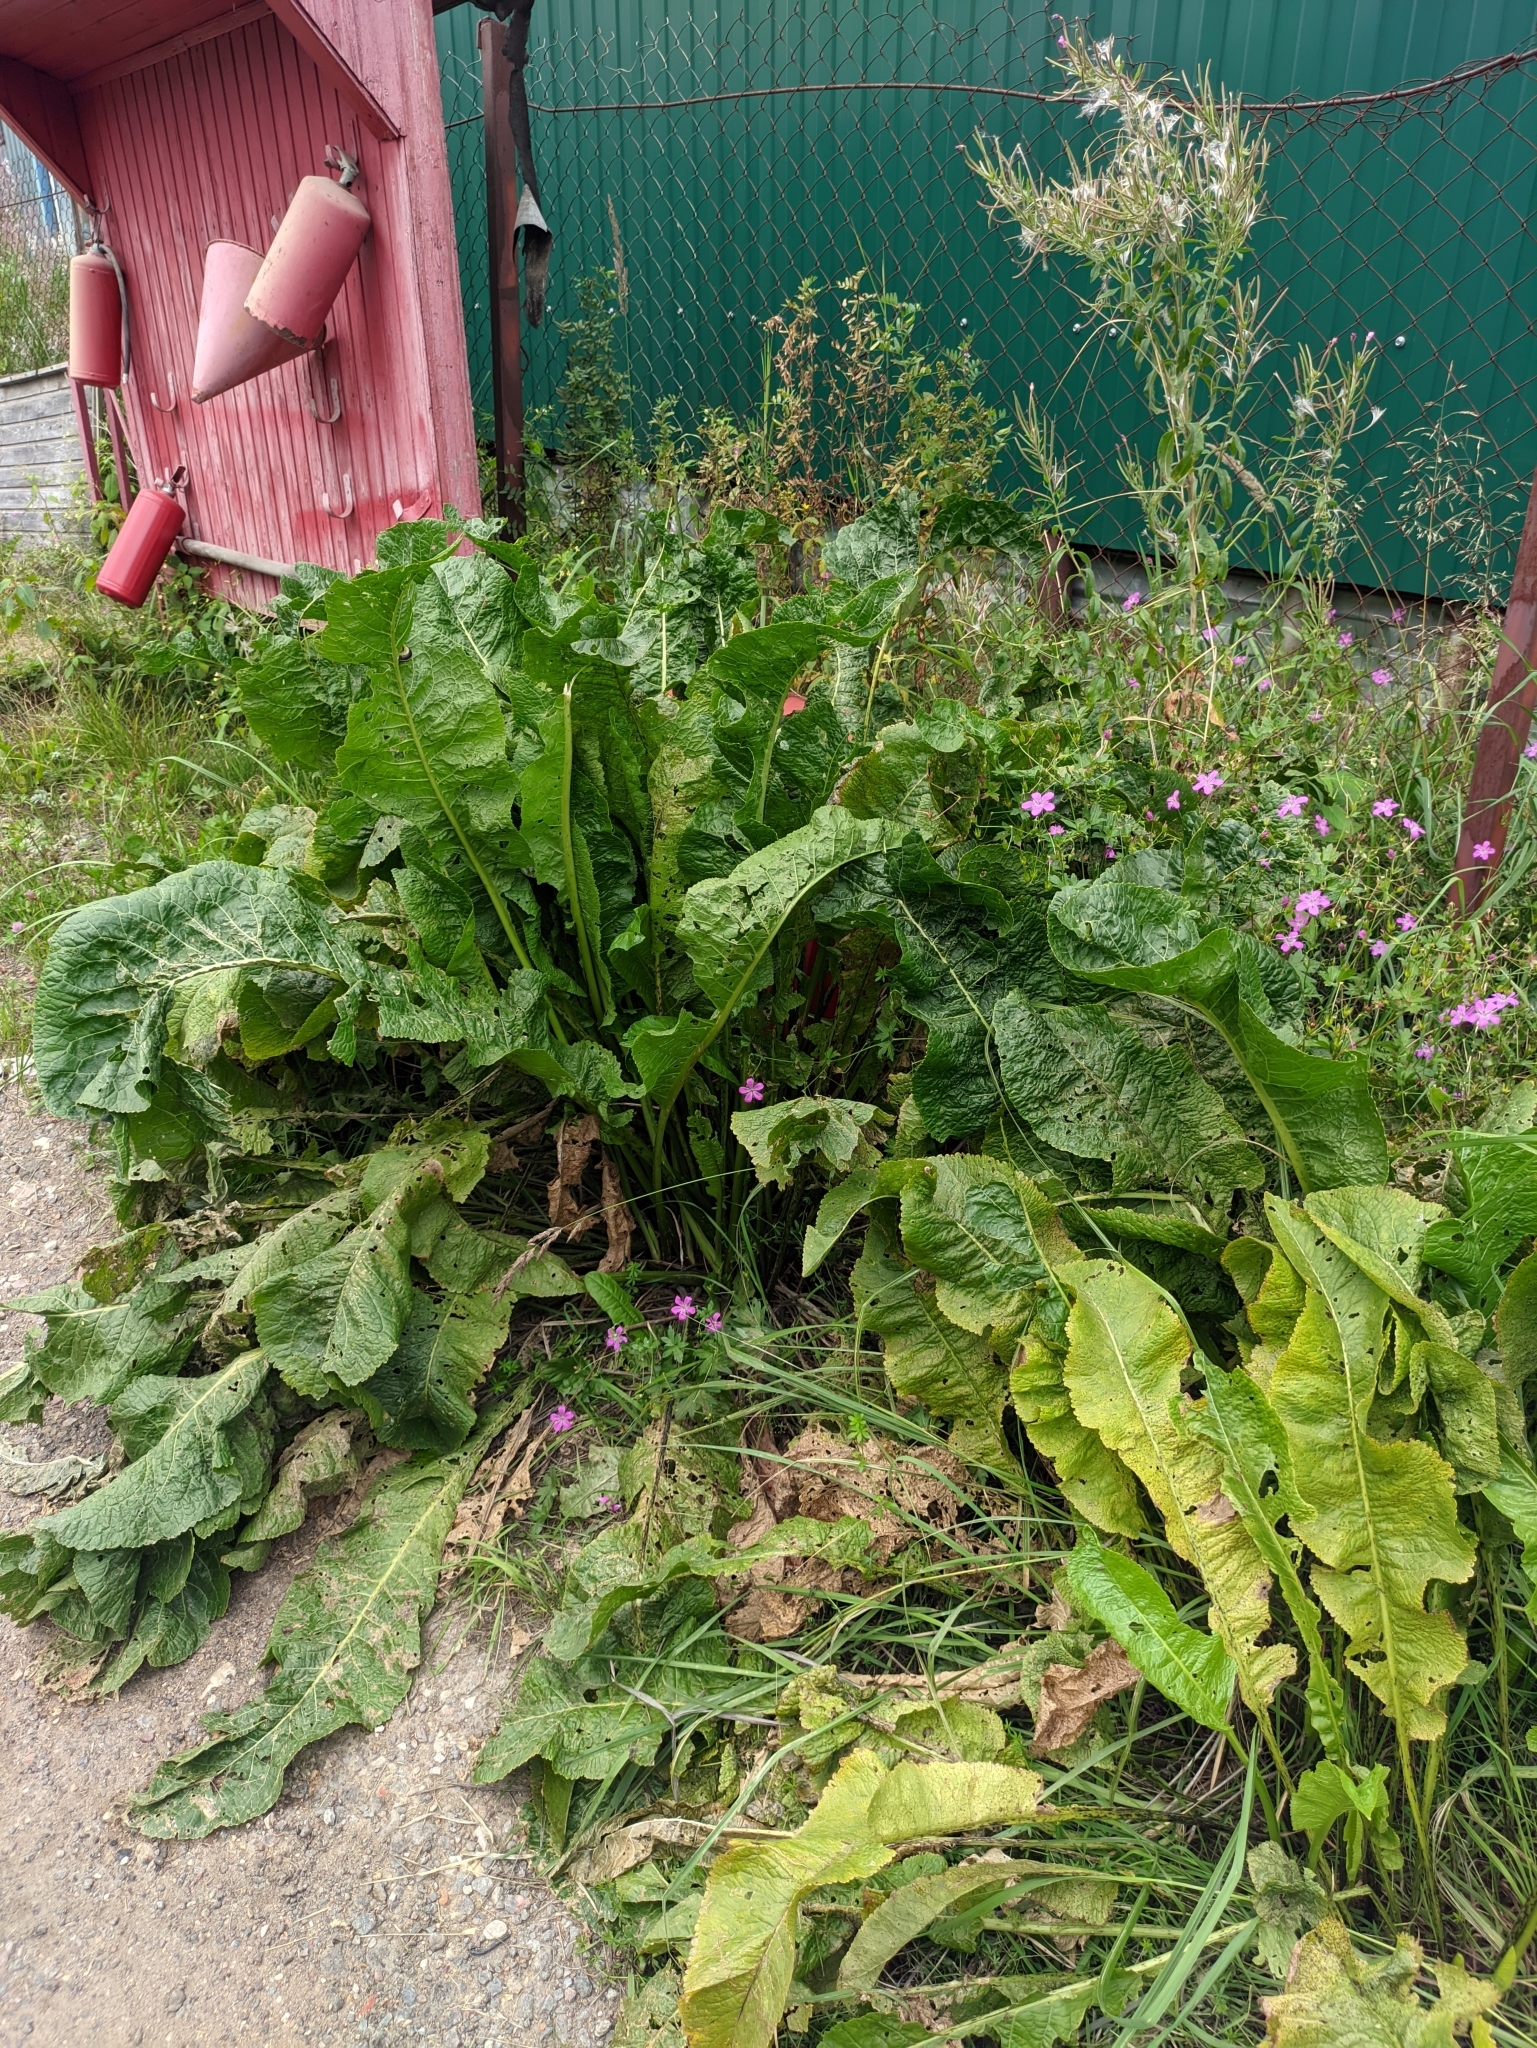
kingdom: Plantae
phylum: Tracheophyta
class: Magnoliopsida
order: Brassicales
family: Brassicaceae
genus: Armoracia
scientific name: Armoracia rusticana
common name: Horseradish
